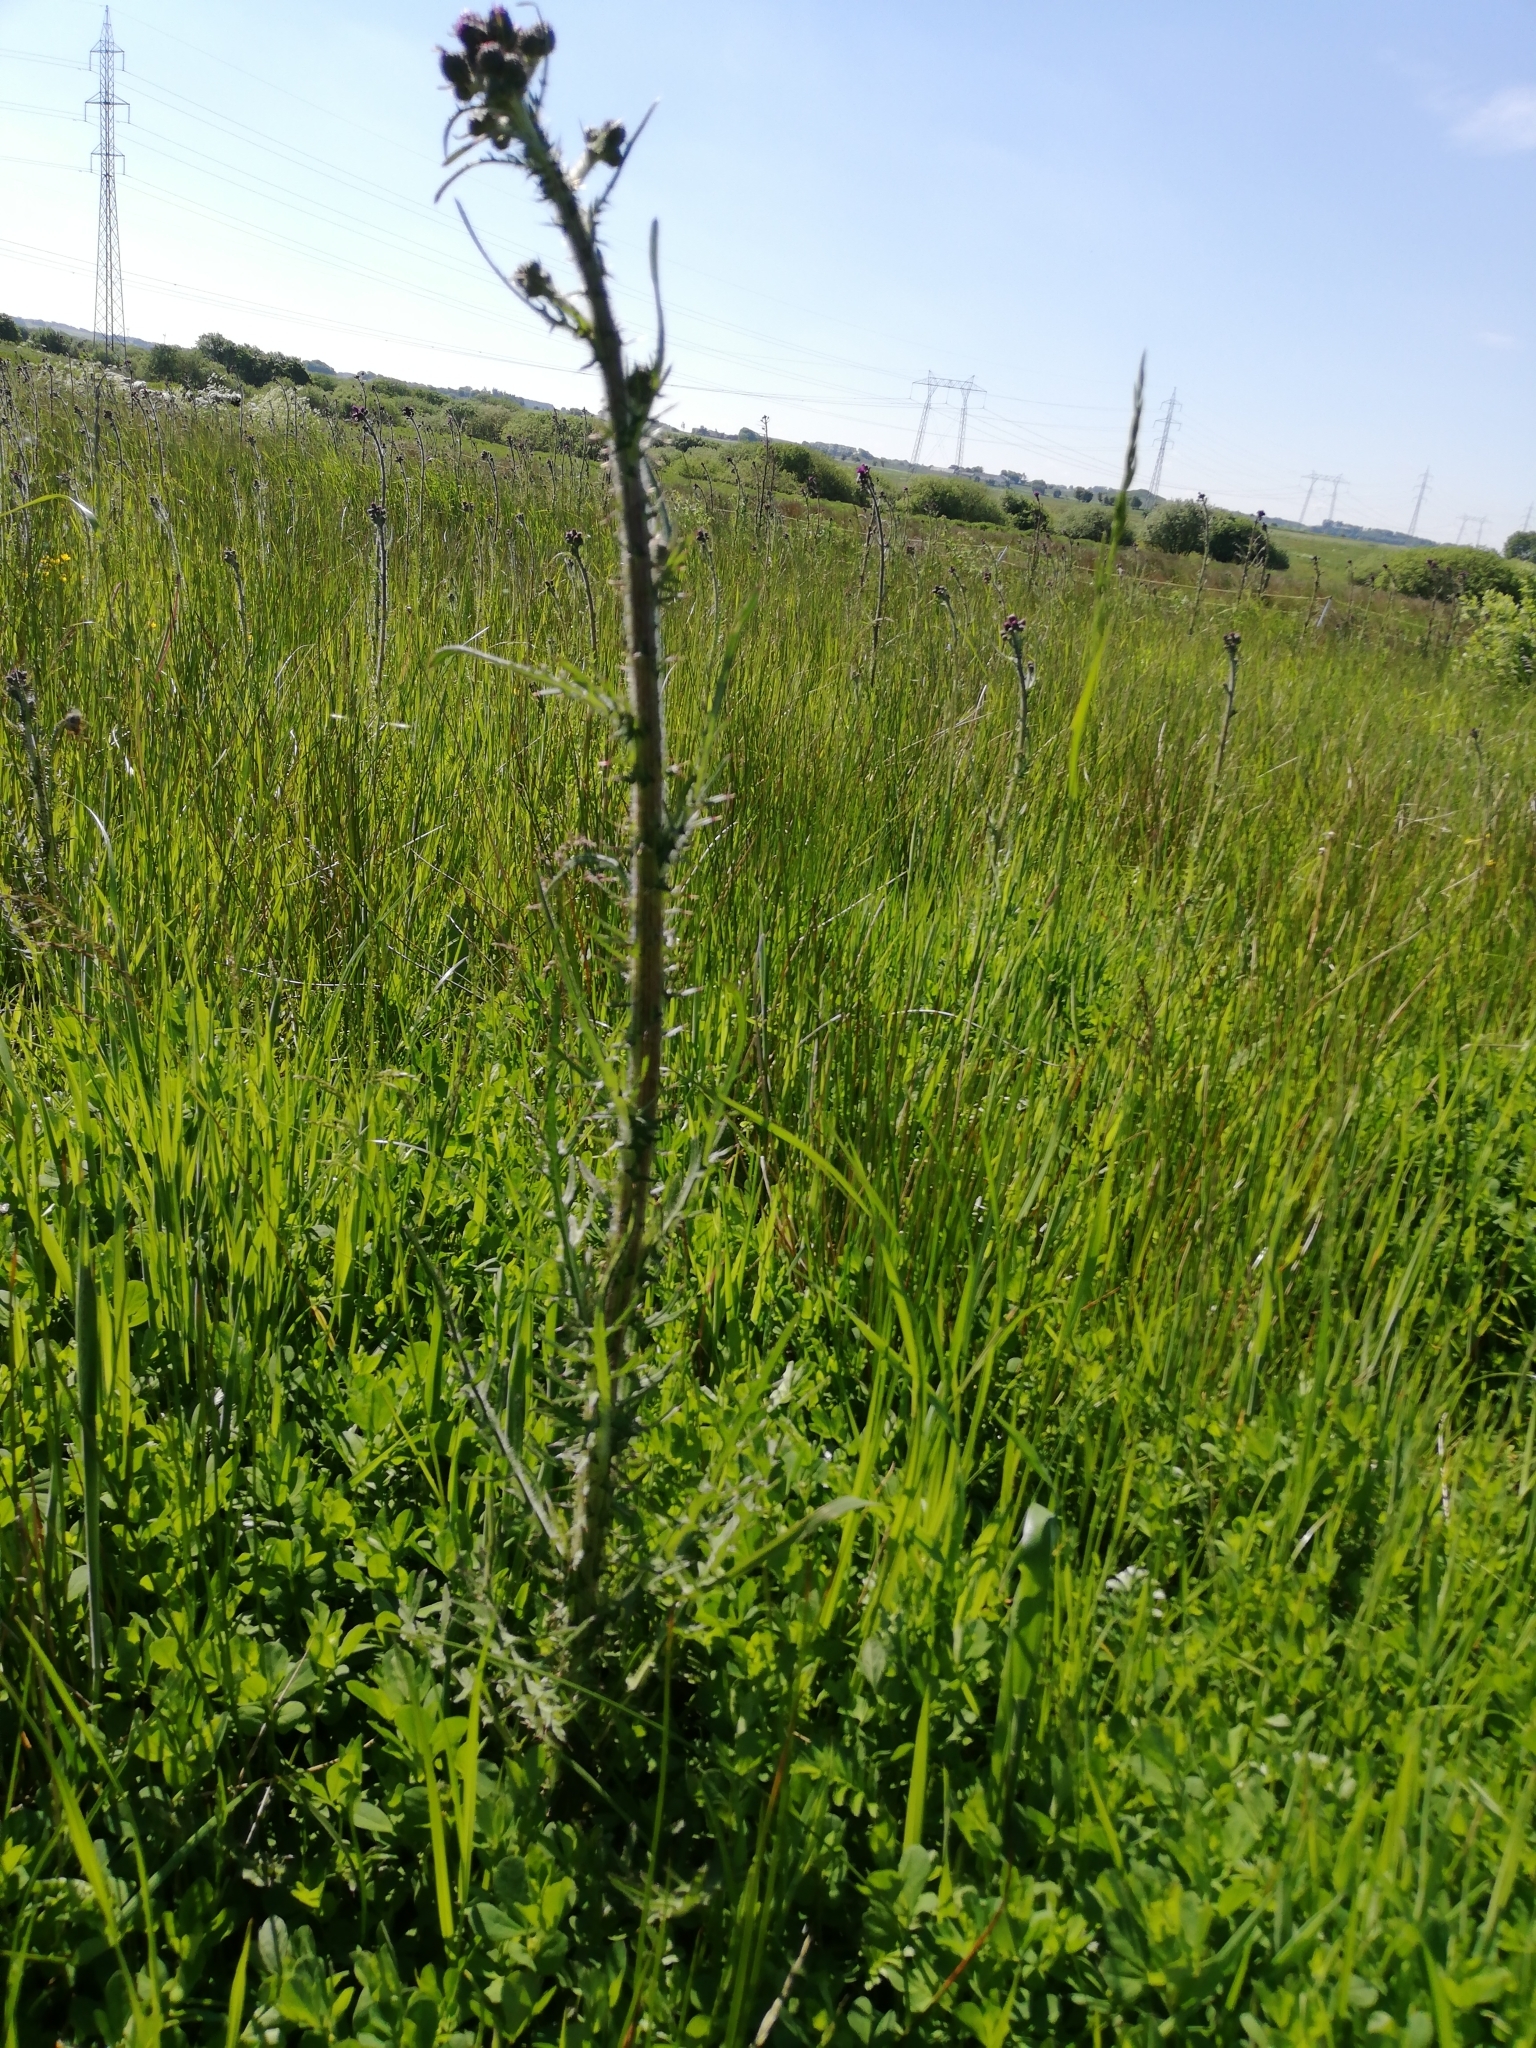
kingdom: Plantae
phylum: Tracheophyta
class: Magnoliopsida
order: Asterales
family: Asteraceae
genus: Cirsium
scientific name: Cirsium palustre
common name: Marsh thistle
